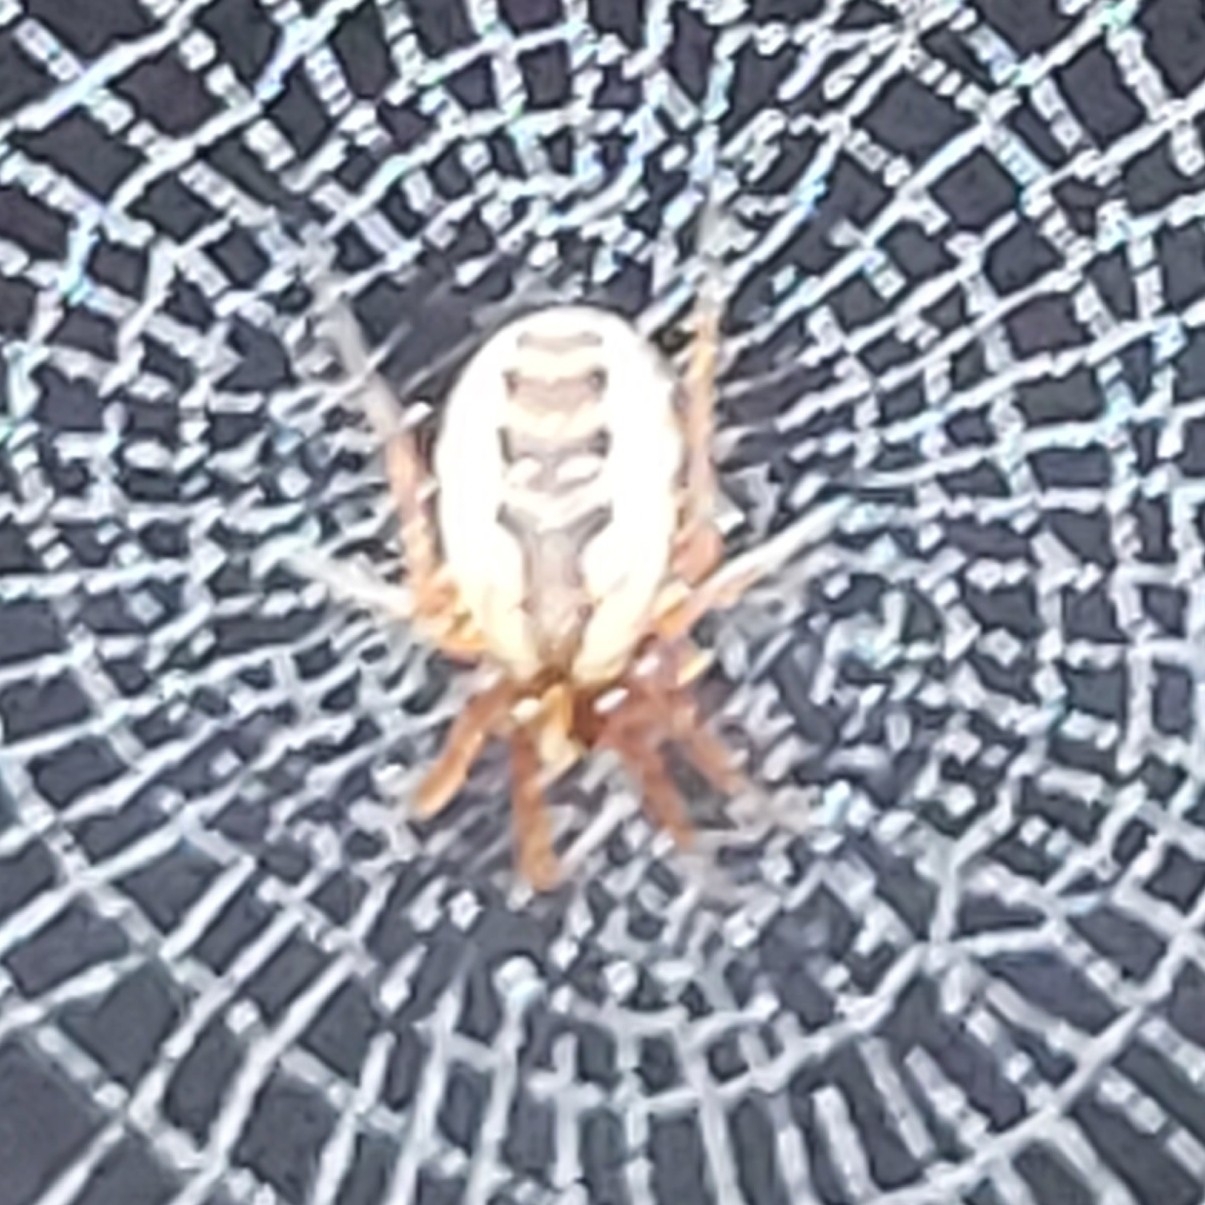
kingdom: Animalia
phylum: Arthropoda
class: Arachnida
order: Araneae
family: Araneidae
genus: Mangora
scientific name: Mangora placida
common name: Tuft-legged orbweaver
